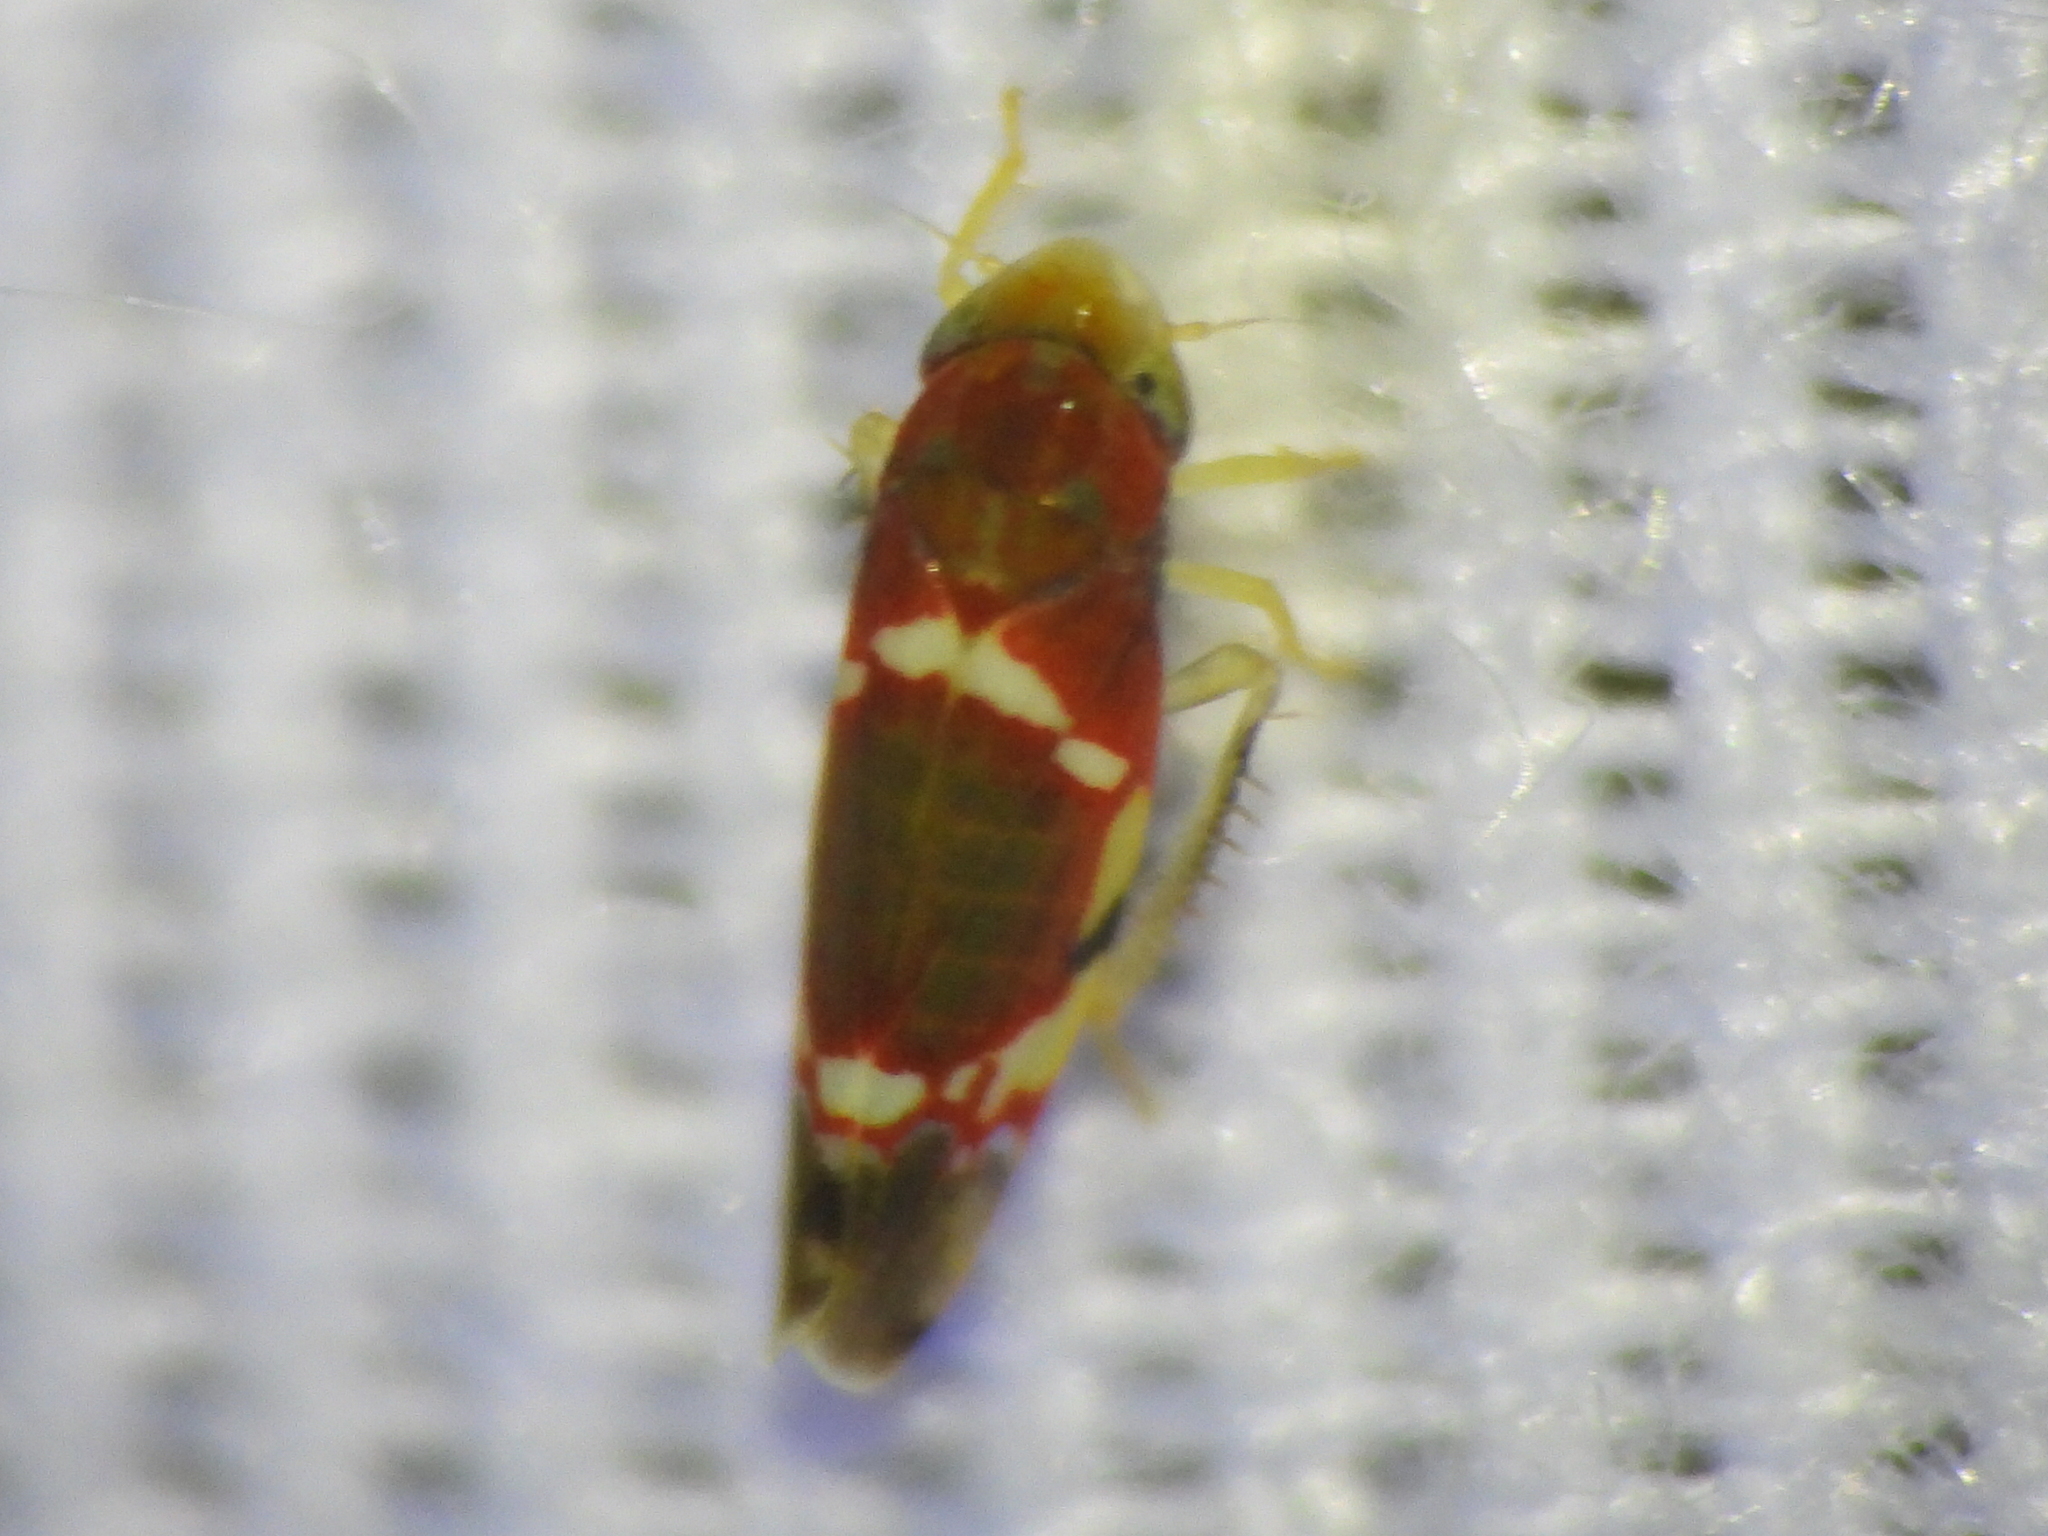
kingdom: Animalia
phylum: Arthropoda
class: Insecta
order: Hemiptera
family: Cicadellidae
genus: Erythroneura
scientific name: Erythroneura vitis
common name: Grapevine leafhopper
